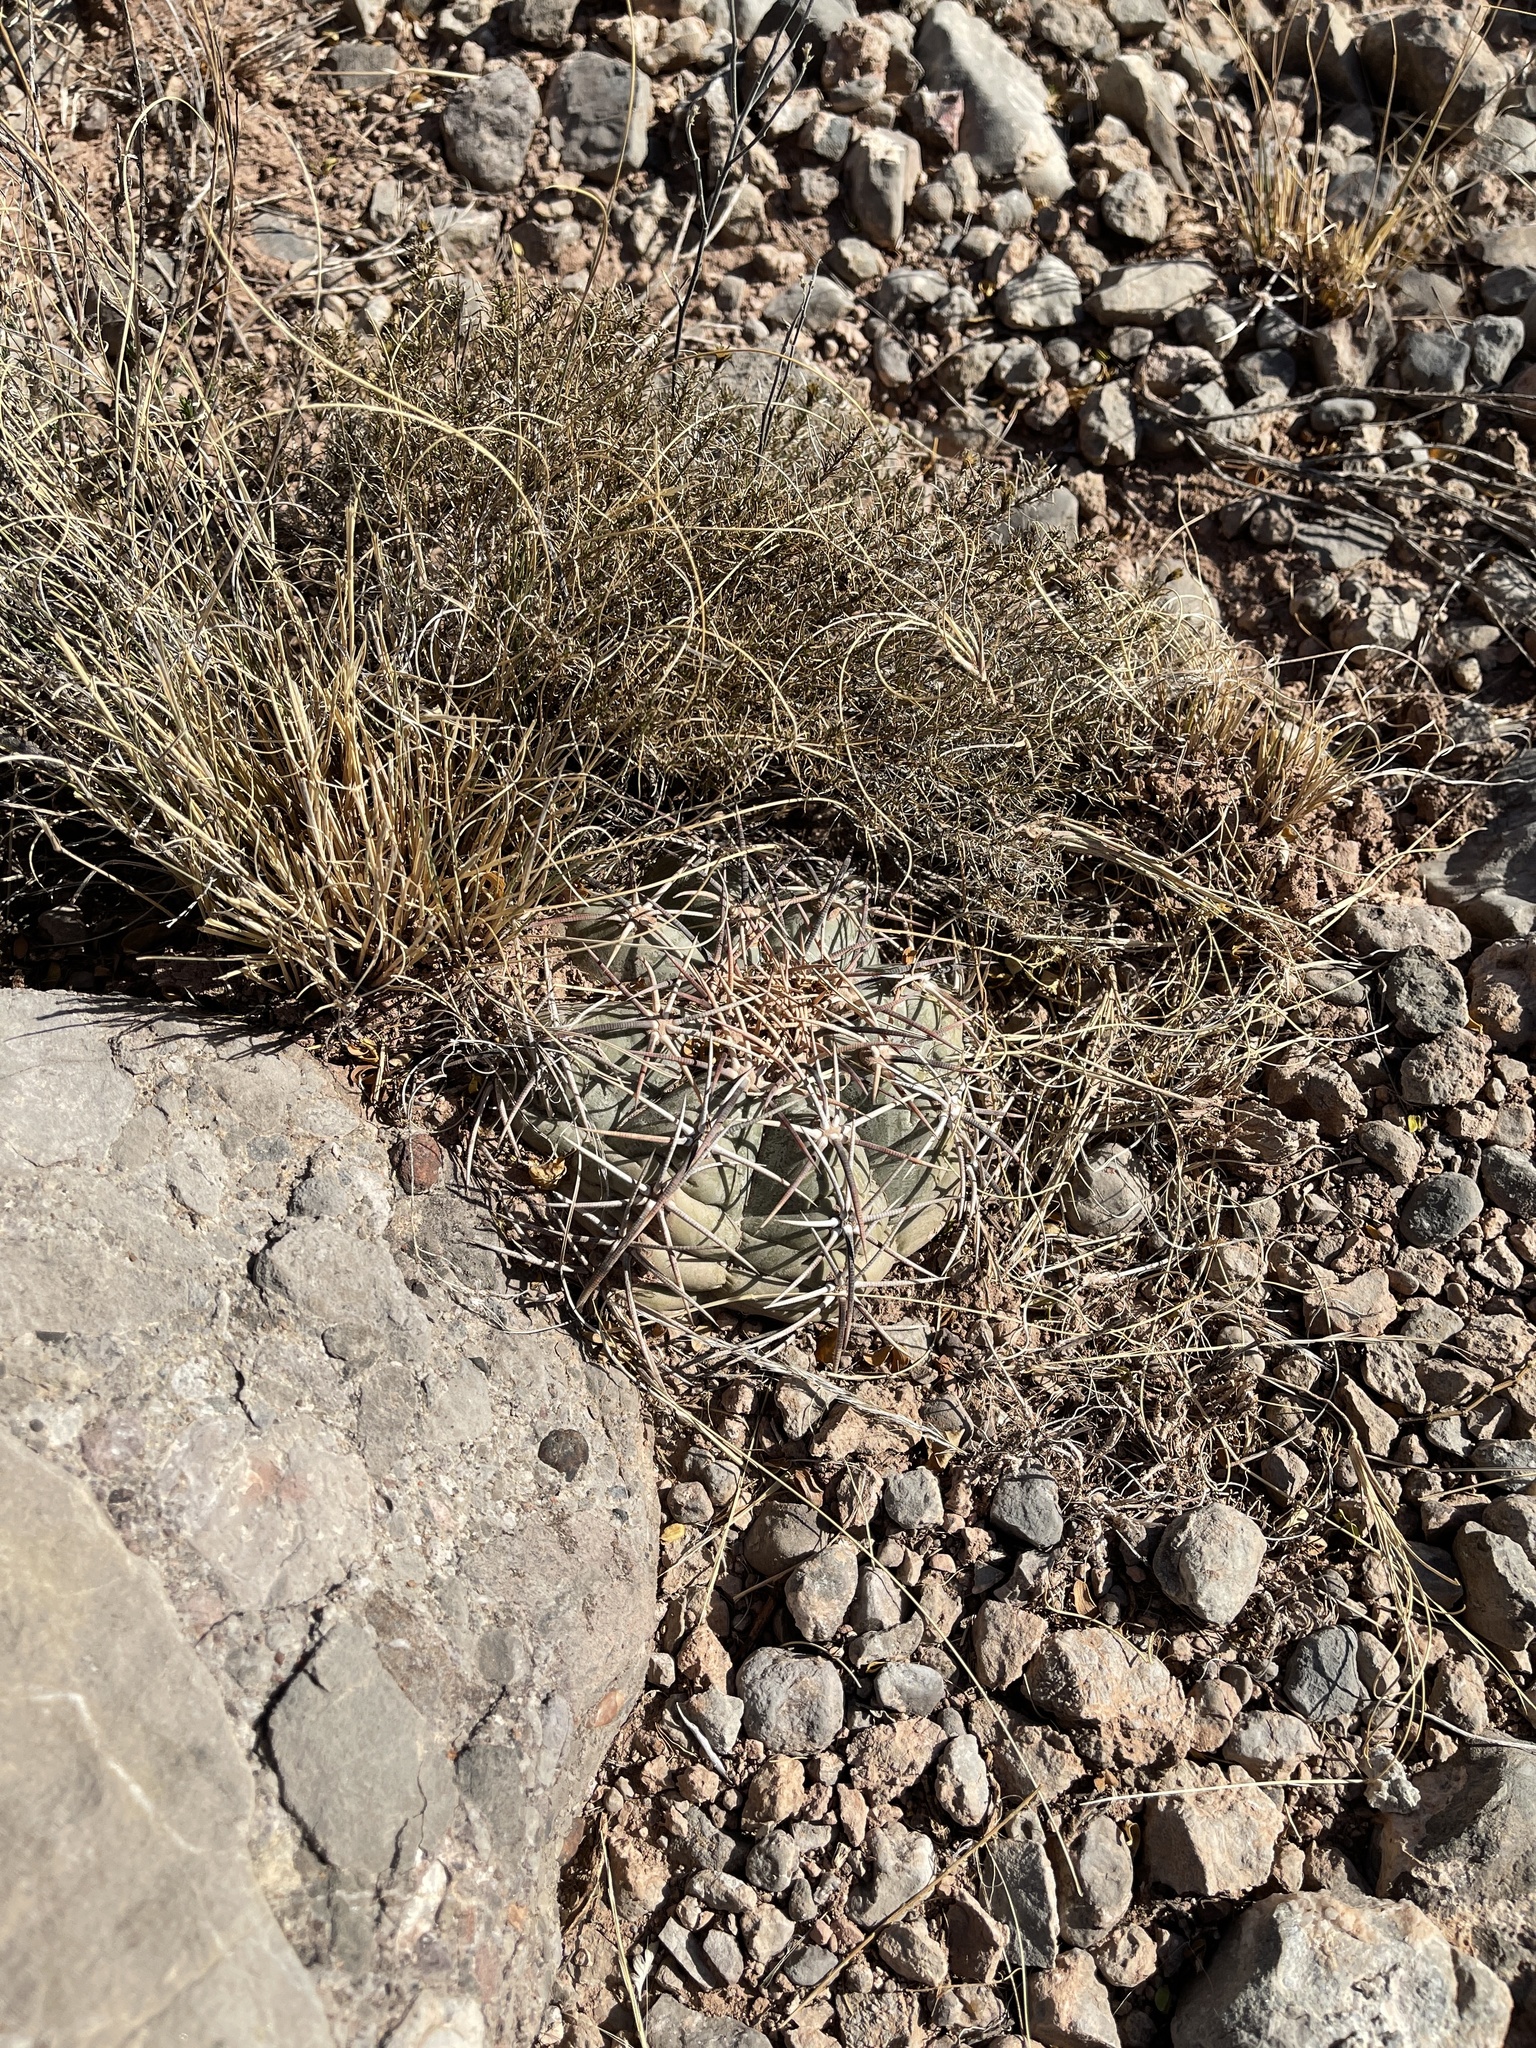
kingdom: Plantae
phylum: Tracheophyta
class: Magnoliopsida
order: Caryophyllales
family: Cactaceae
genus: Echinocactus
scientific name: Echinocactus horizonthalonius
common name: Devilshead
